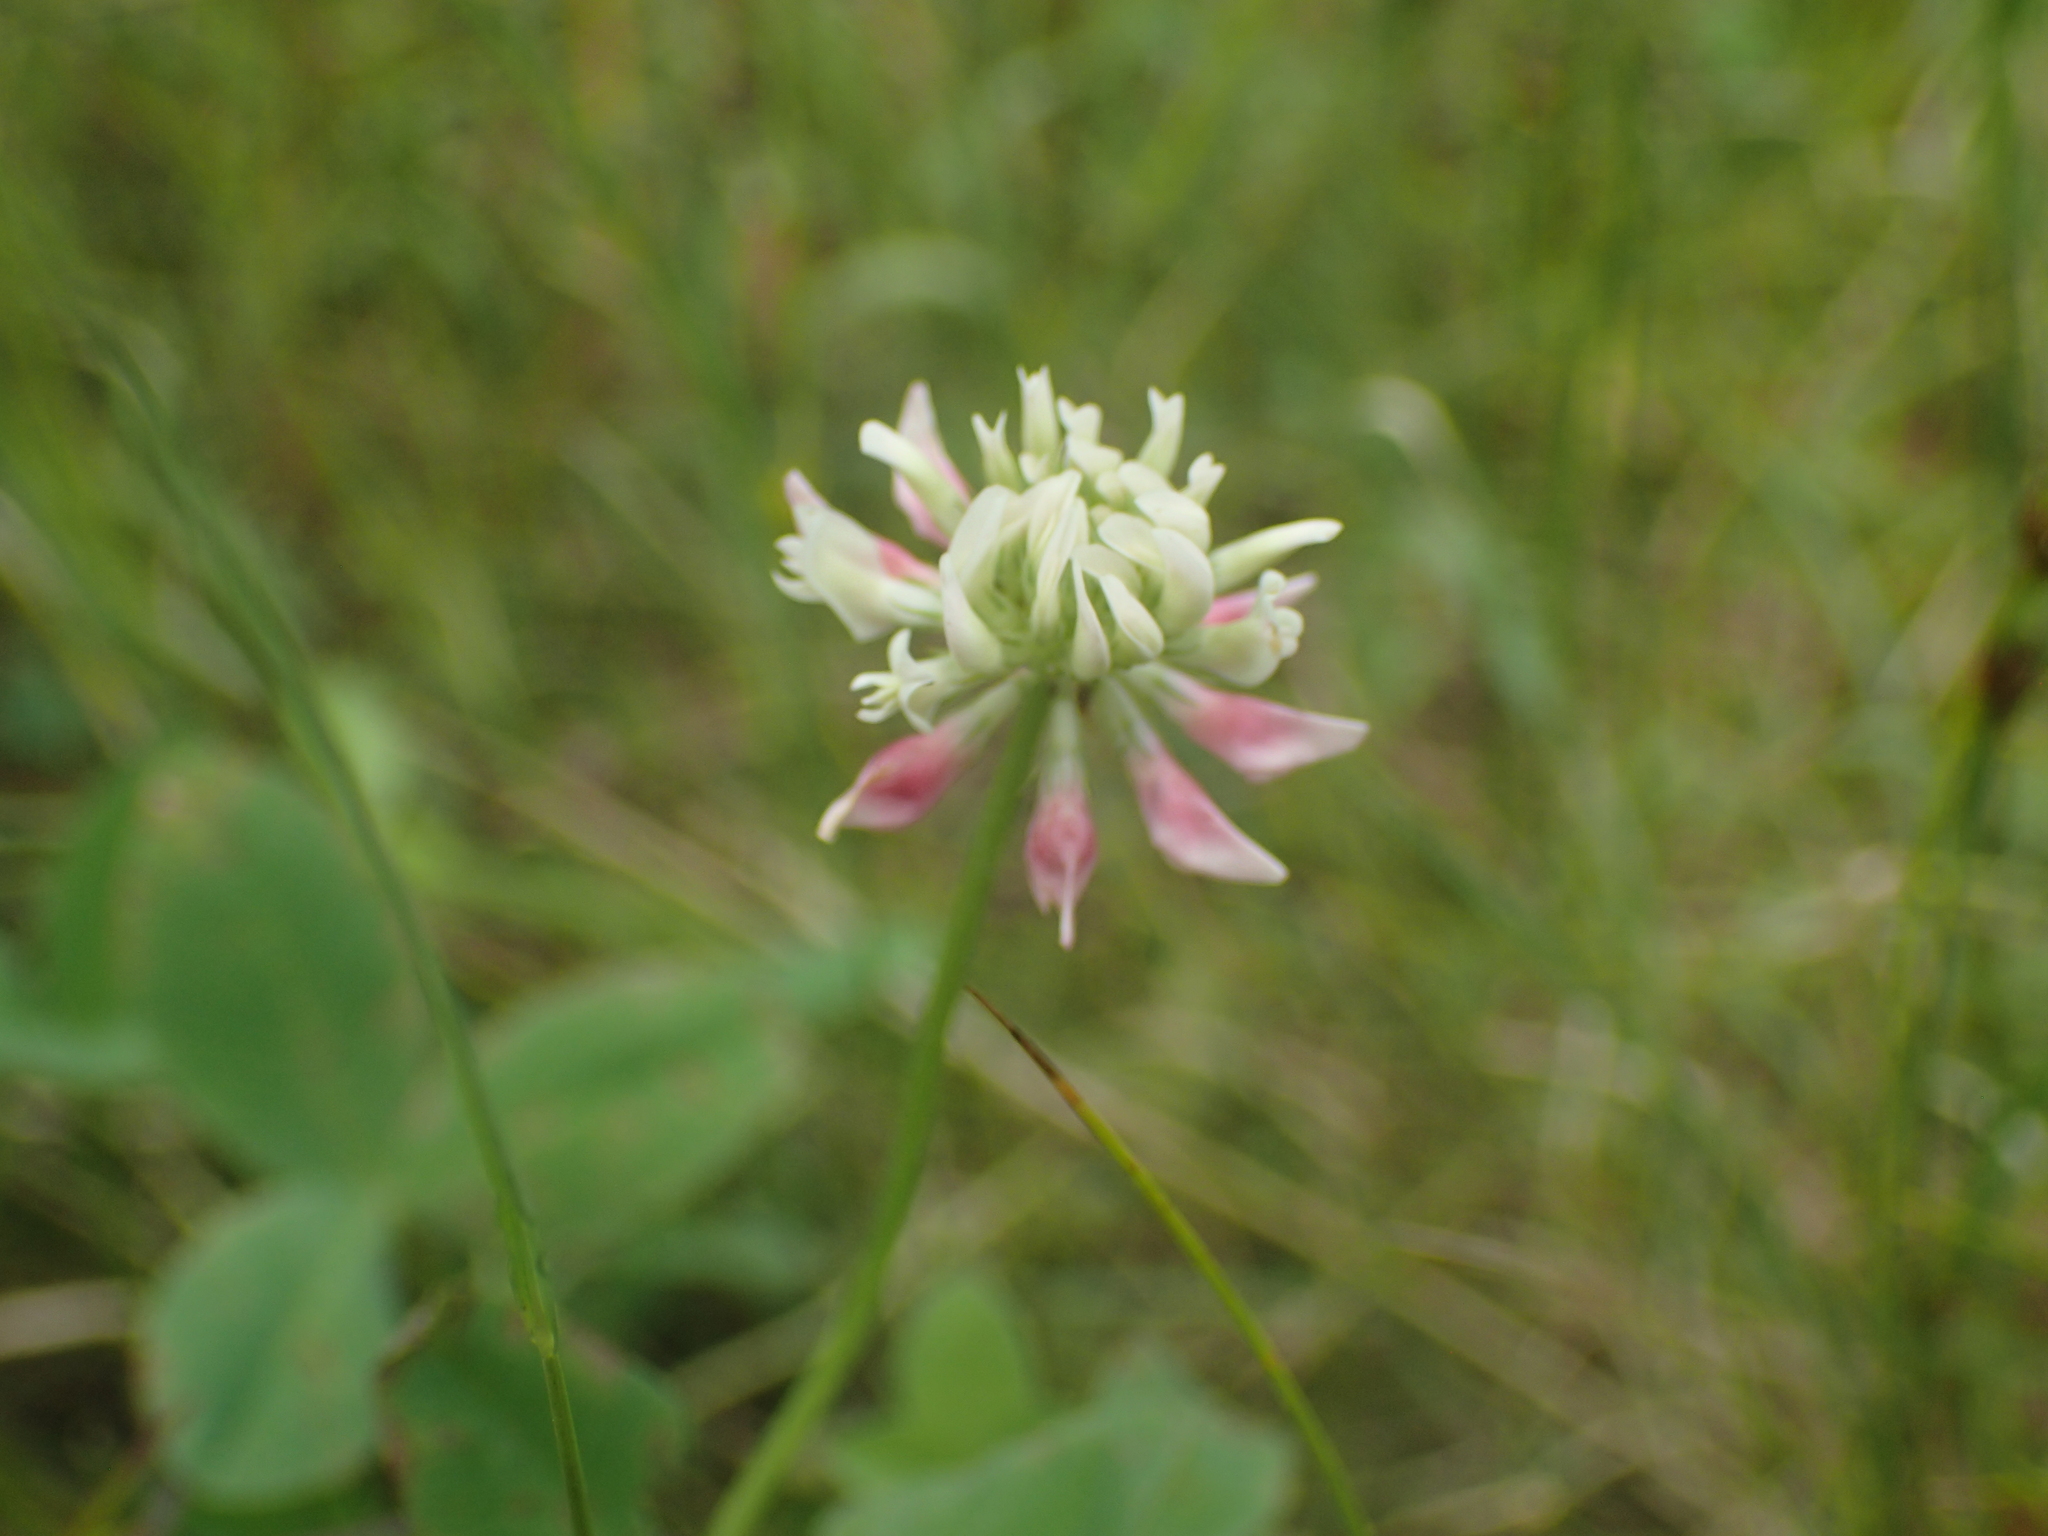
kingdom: Plantae
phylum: Tracheophyta
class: Magnoliopsida
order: Fabales
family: Fabaceae
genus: Trifolium
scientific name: Trifolium hybridum
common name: Alsike clover
